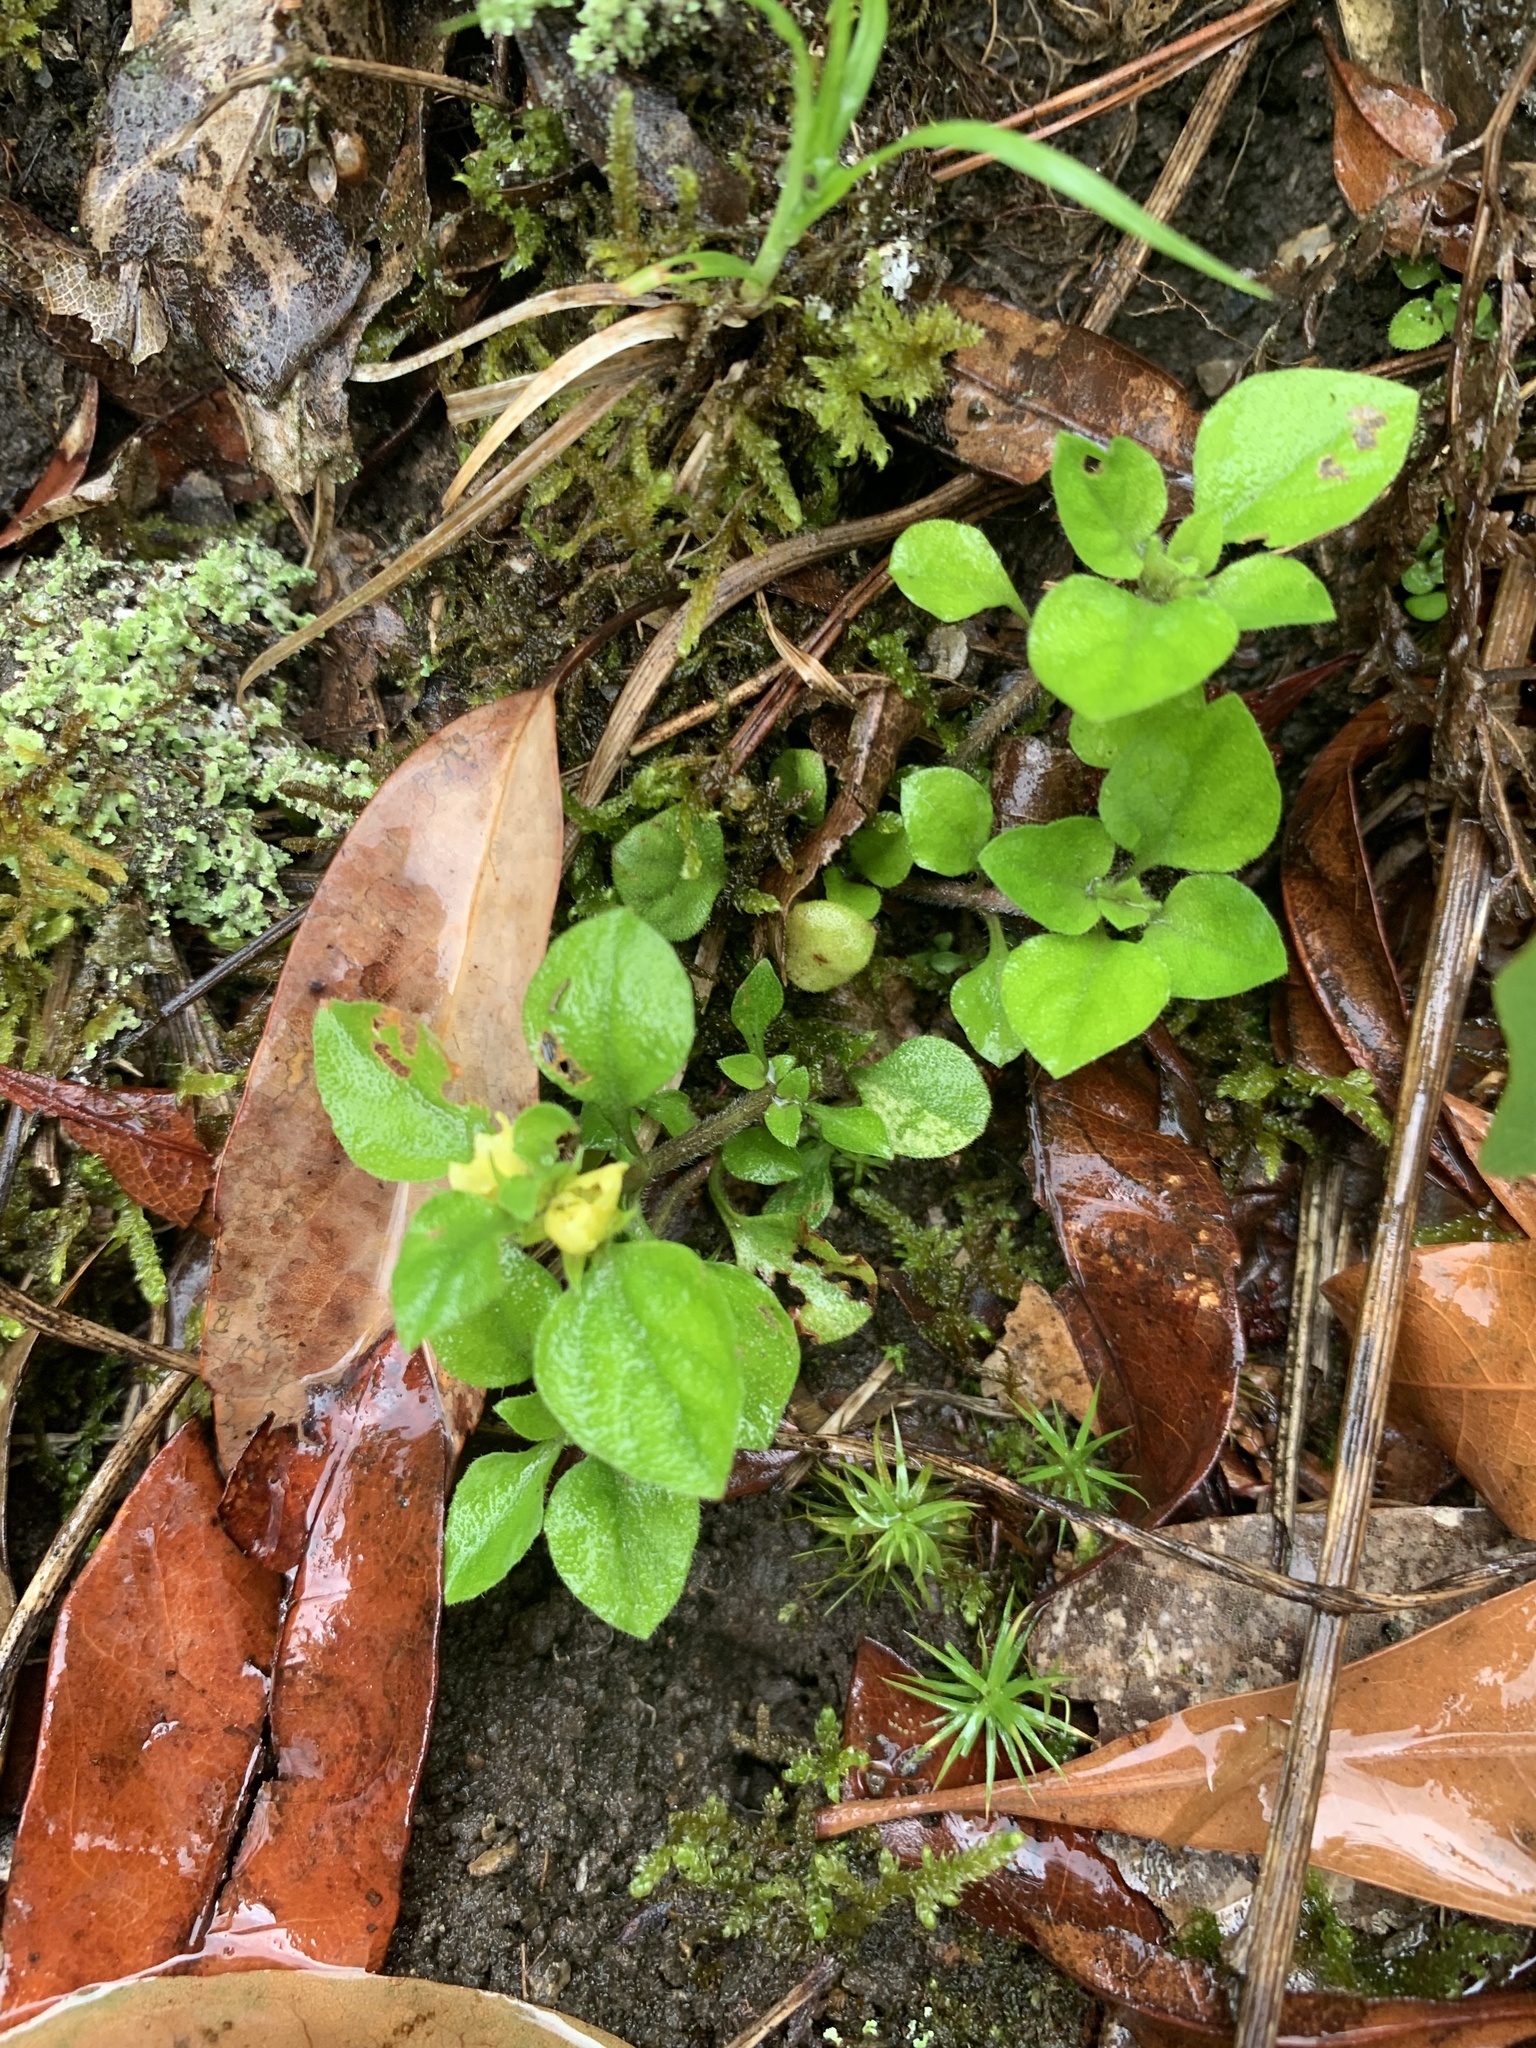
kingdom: Plantae
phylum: Tracheophyta
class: Magnoliopsida
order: Ericales
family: Primulaceae
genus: Lysimachia
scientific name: Lysimachia japonica
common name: Japanese yellow loosestrife
